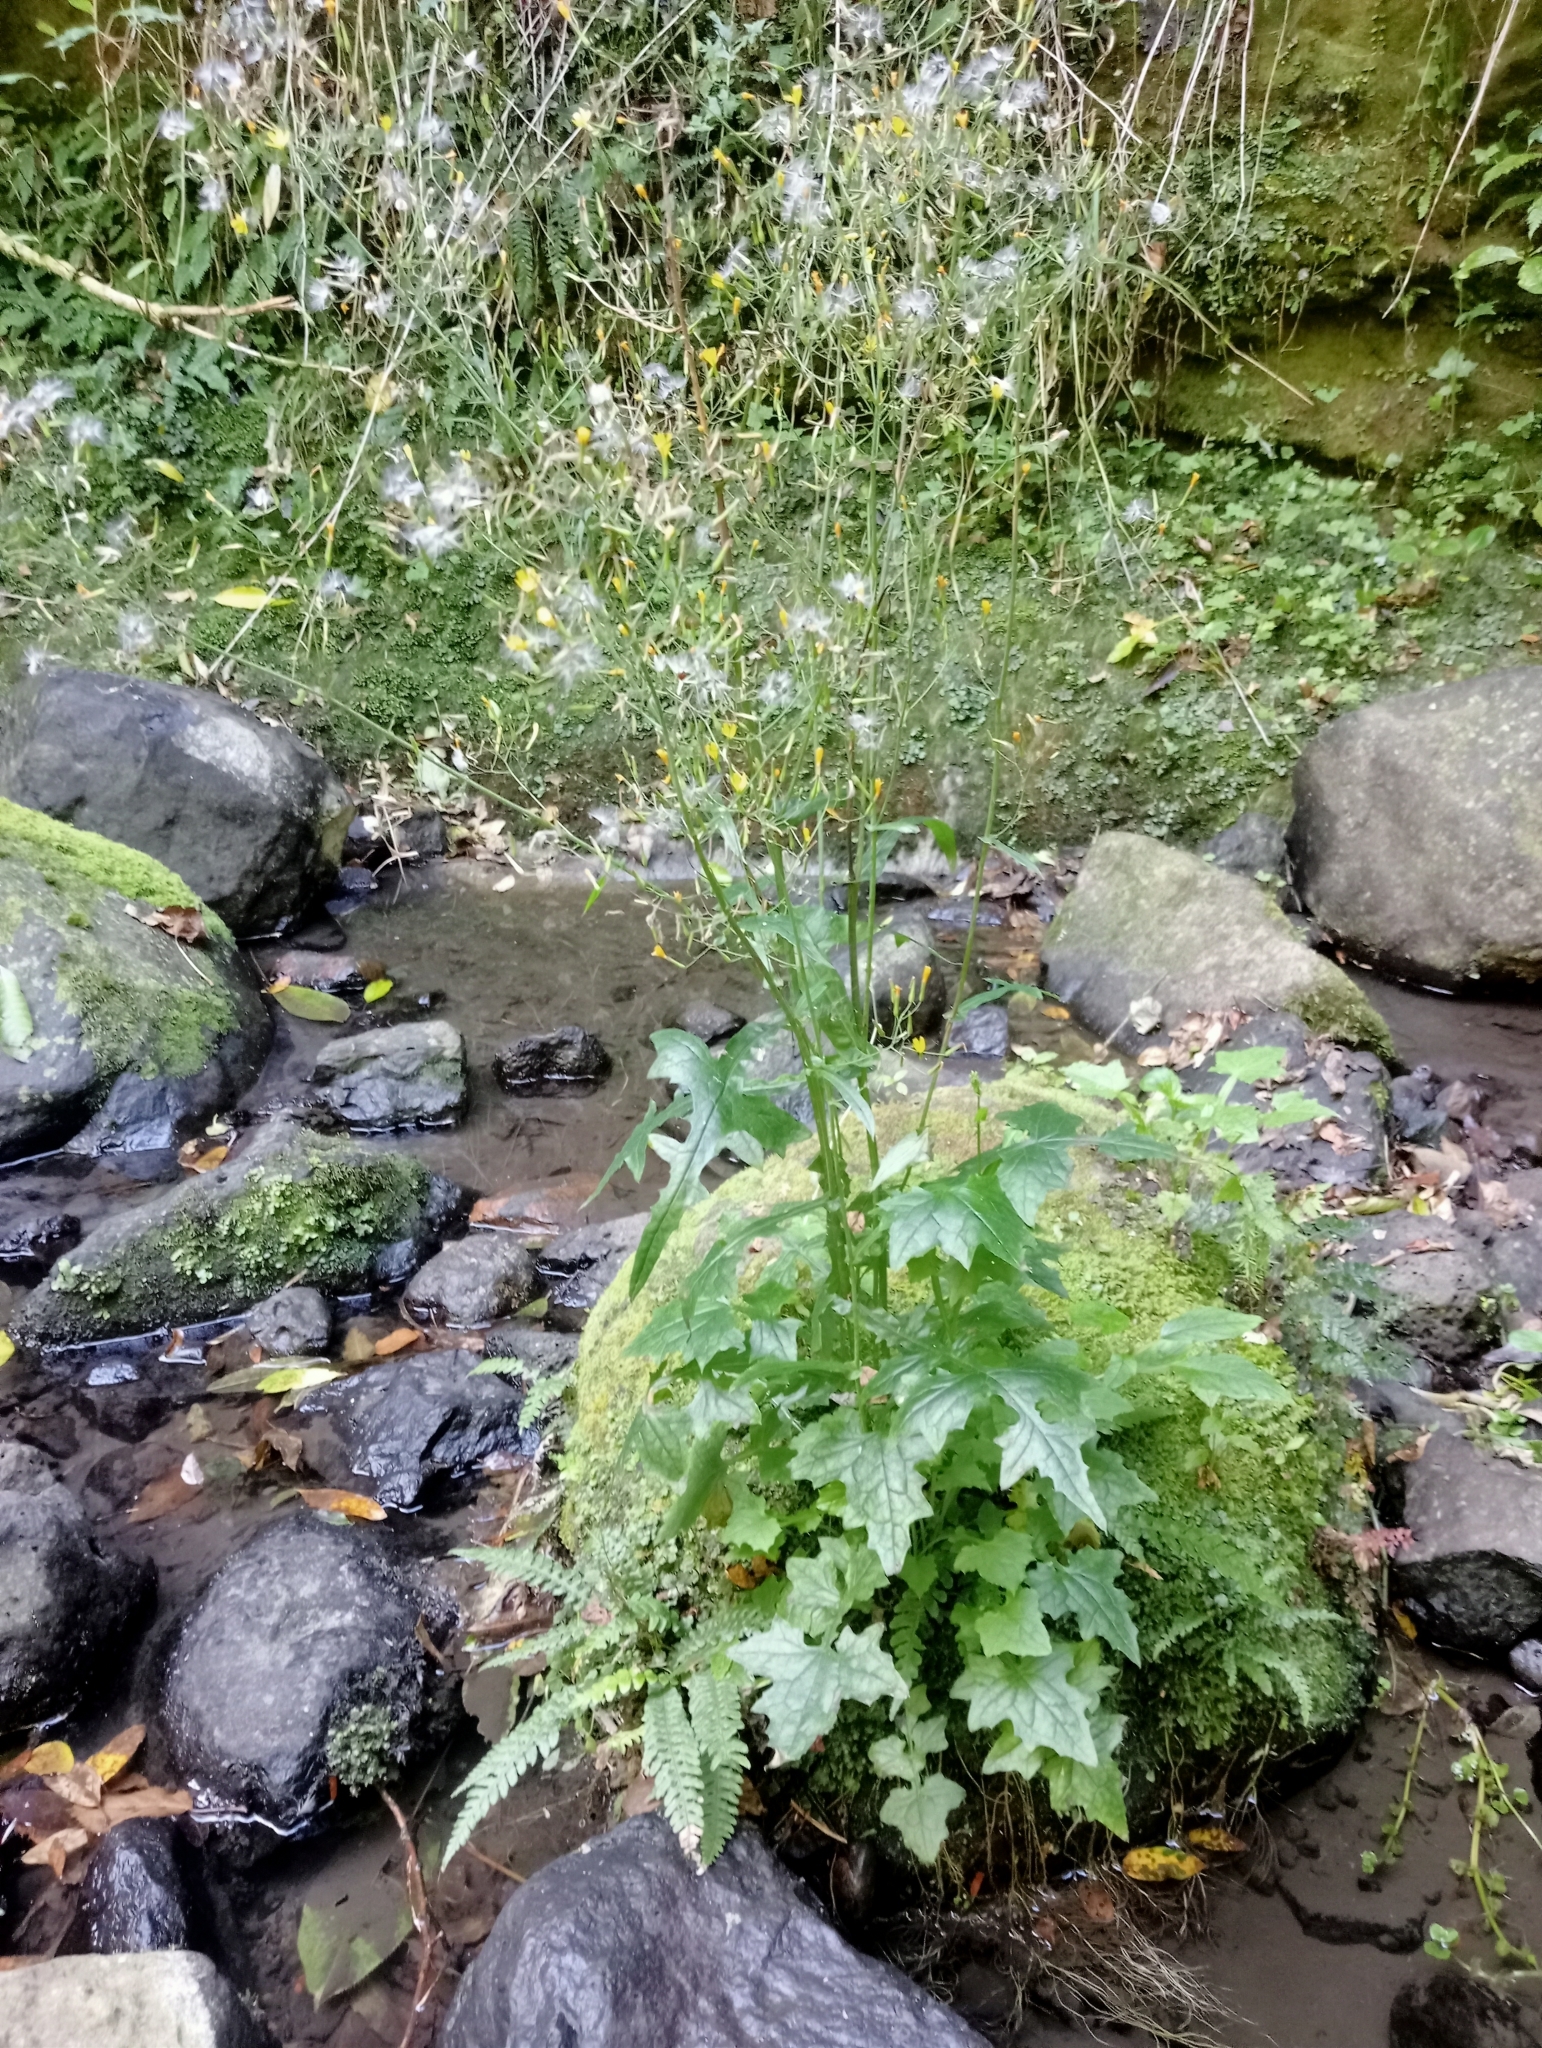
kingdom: Plantae
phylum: Tracheophyta
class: Magnoliopsida
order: Asterales
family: Asteraceae
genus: Mycelis
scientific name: Mycelis muralis
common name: Wall lettuce
